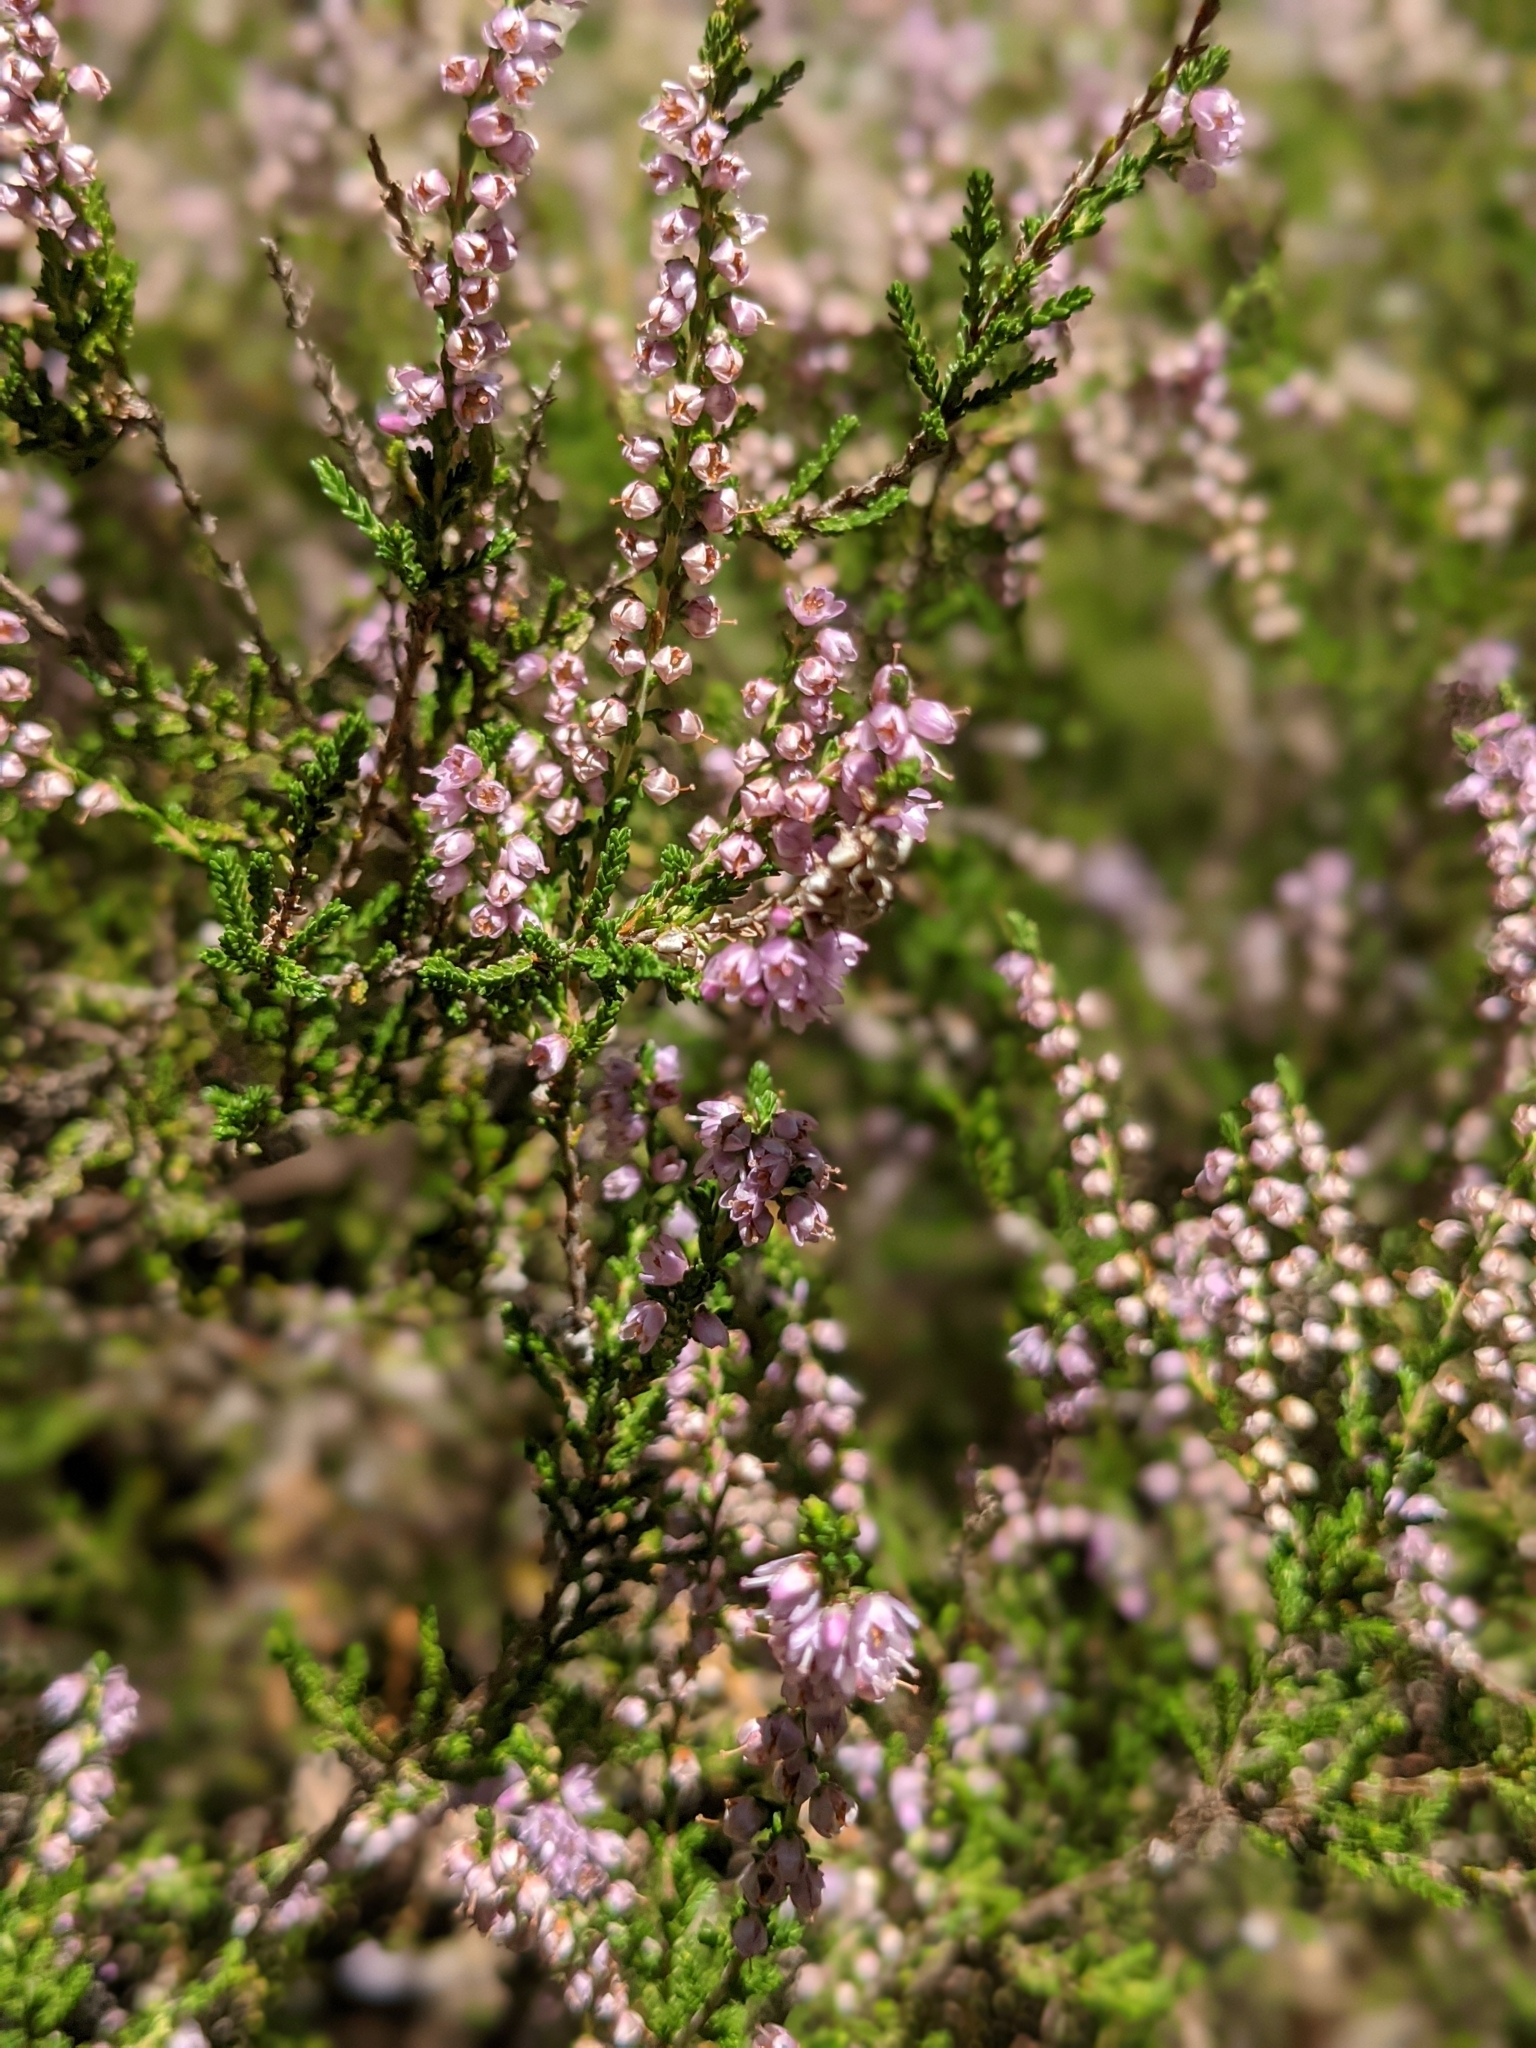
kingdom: Plantae
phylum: Tracheophyta
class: Magnoliopsida
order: Ericales
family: Ericaceae
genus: Calluna
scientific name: Calluna vulgaris
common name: Heather
